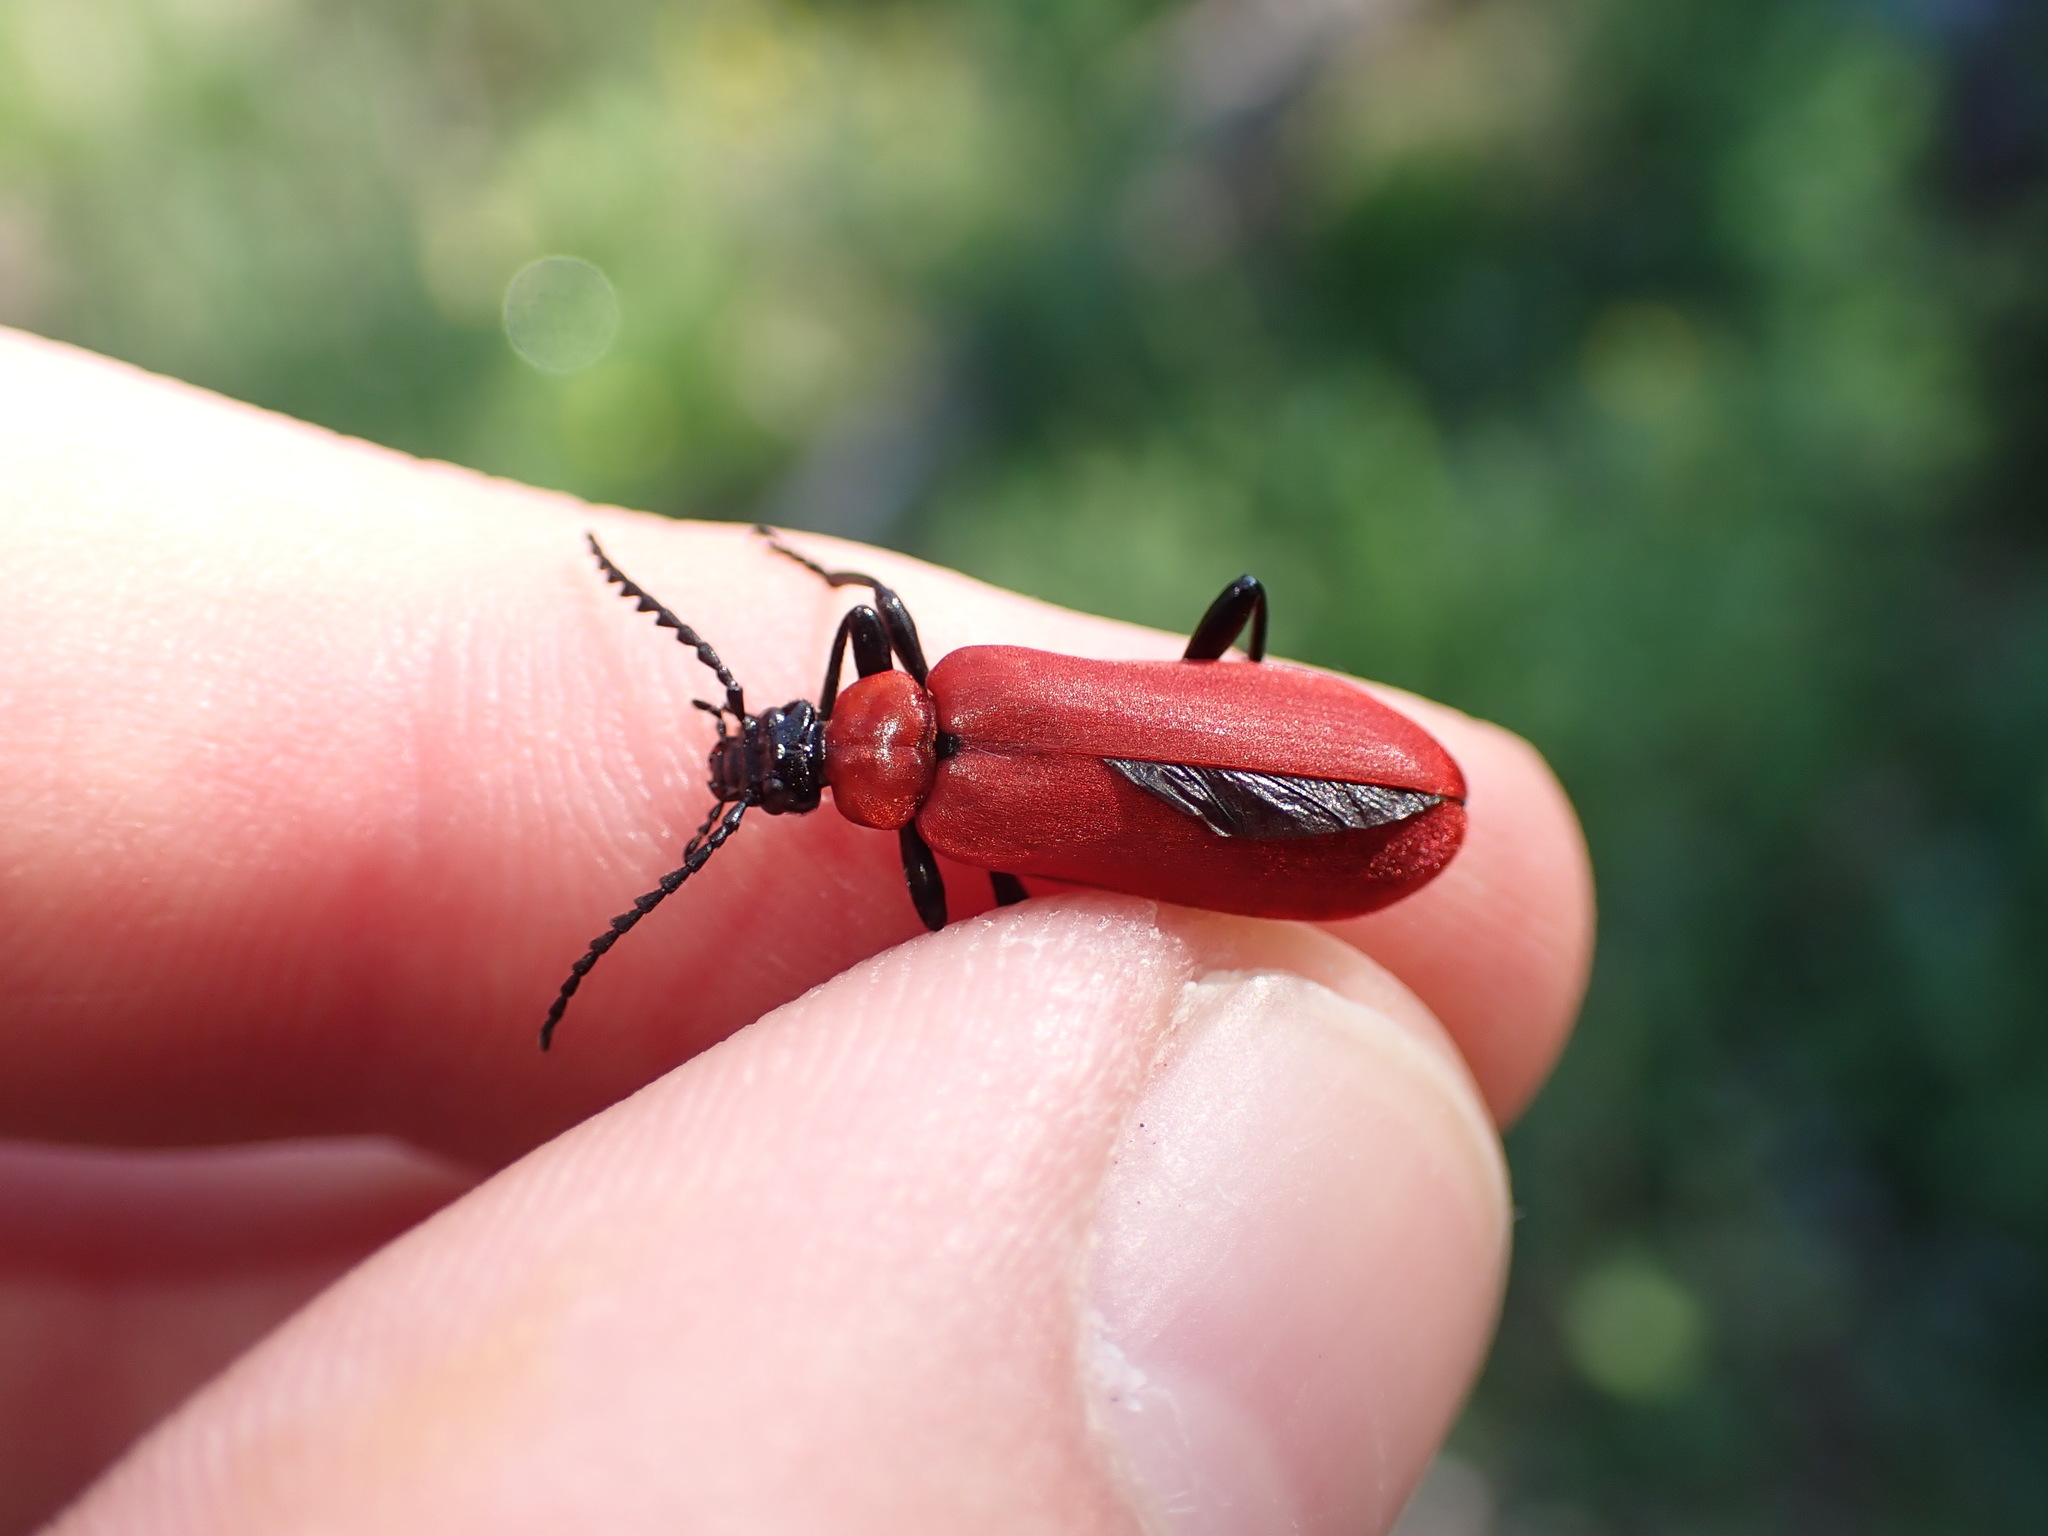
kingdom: Animalia
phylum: Arthropoda
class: Insecta
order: Coleoptera
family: Pyrochroidae
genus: Pyrochroa
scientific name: Pyrochroa coccinea
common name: Black-headed cardinal beetle
